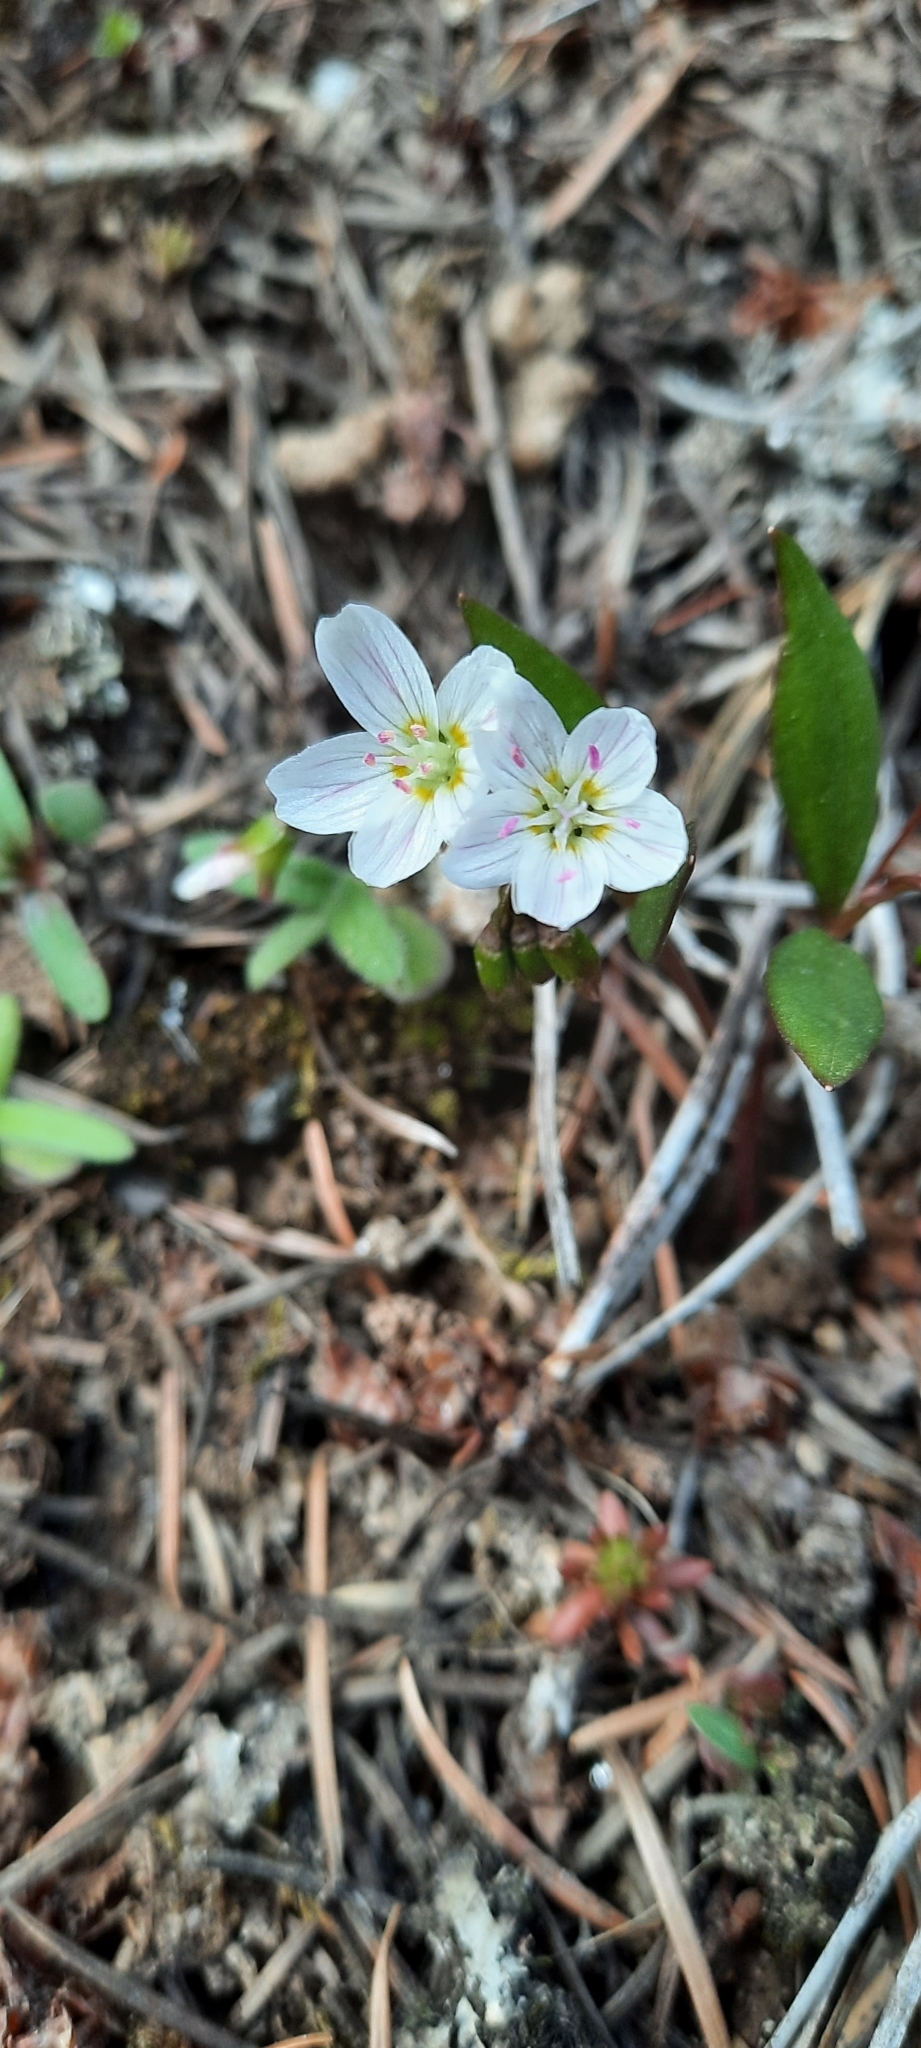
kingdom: Plantae
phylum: Tracheophyta
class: Magnoliopsida
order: Caryophyllales
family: Montiaceae
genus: Claytonia
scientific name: Claytonia lanceolata
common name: Western spring-beauty
